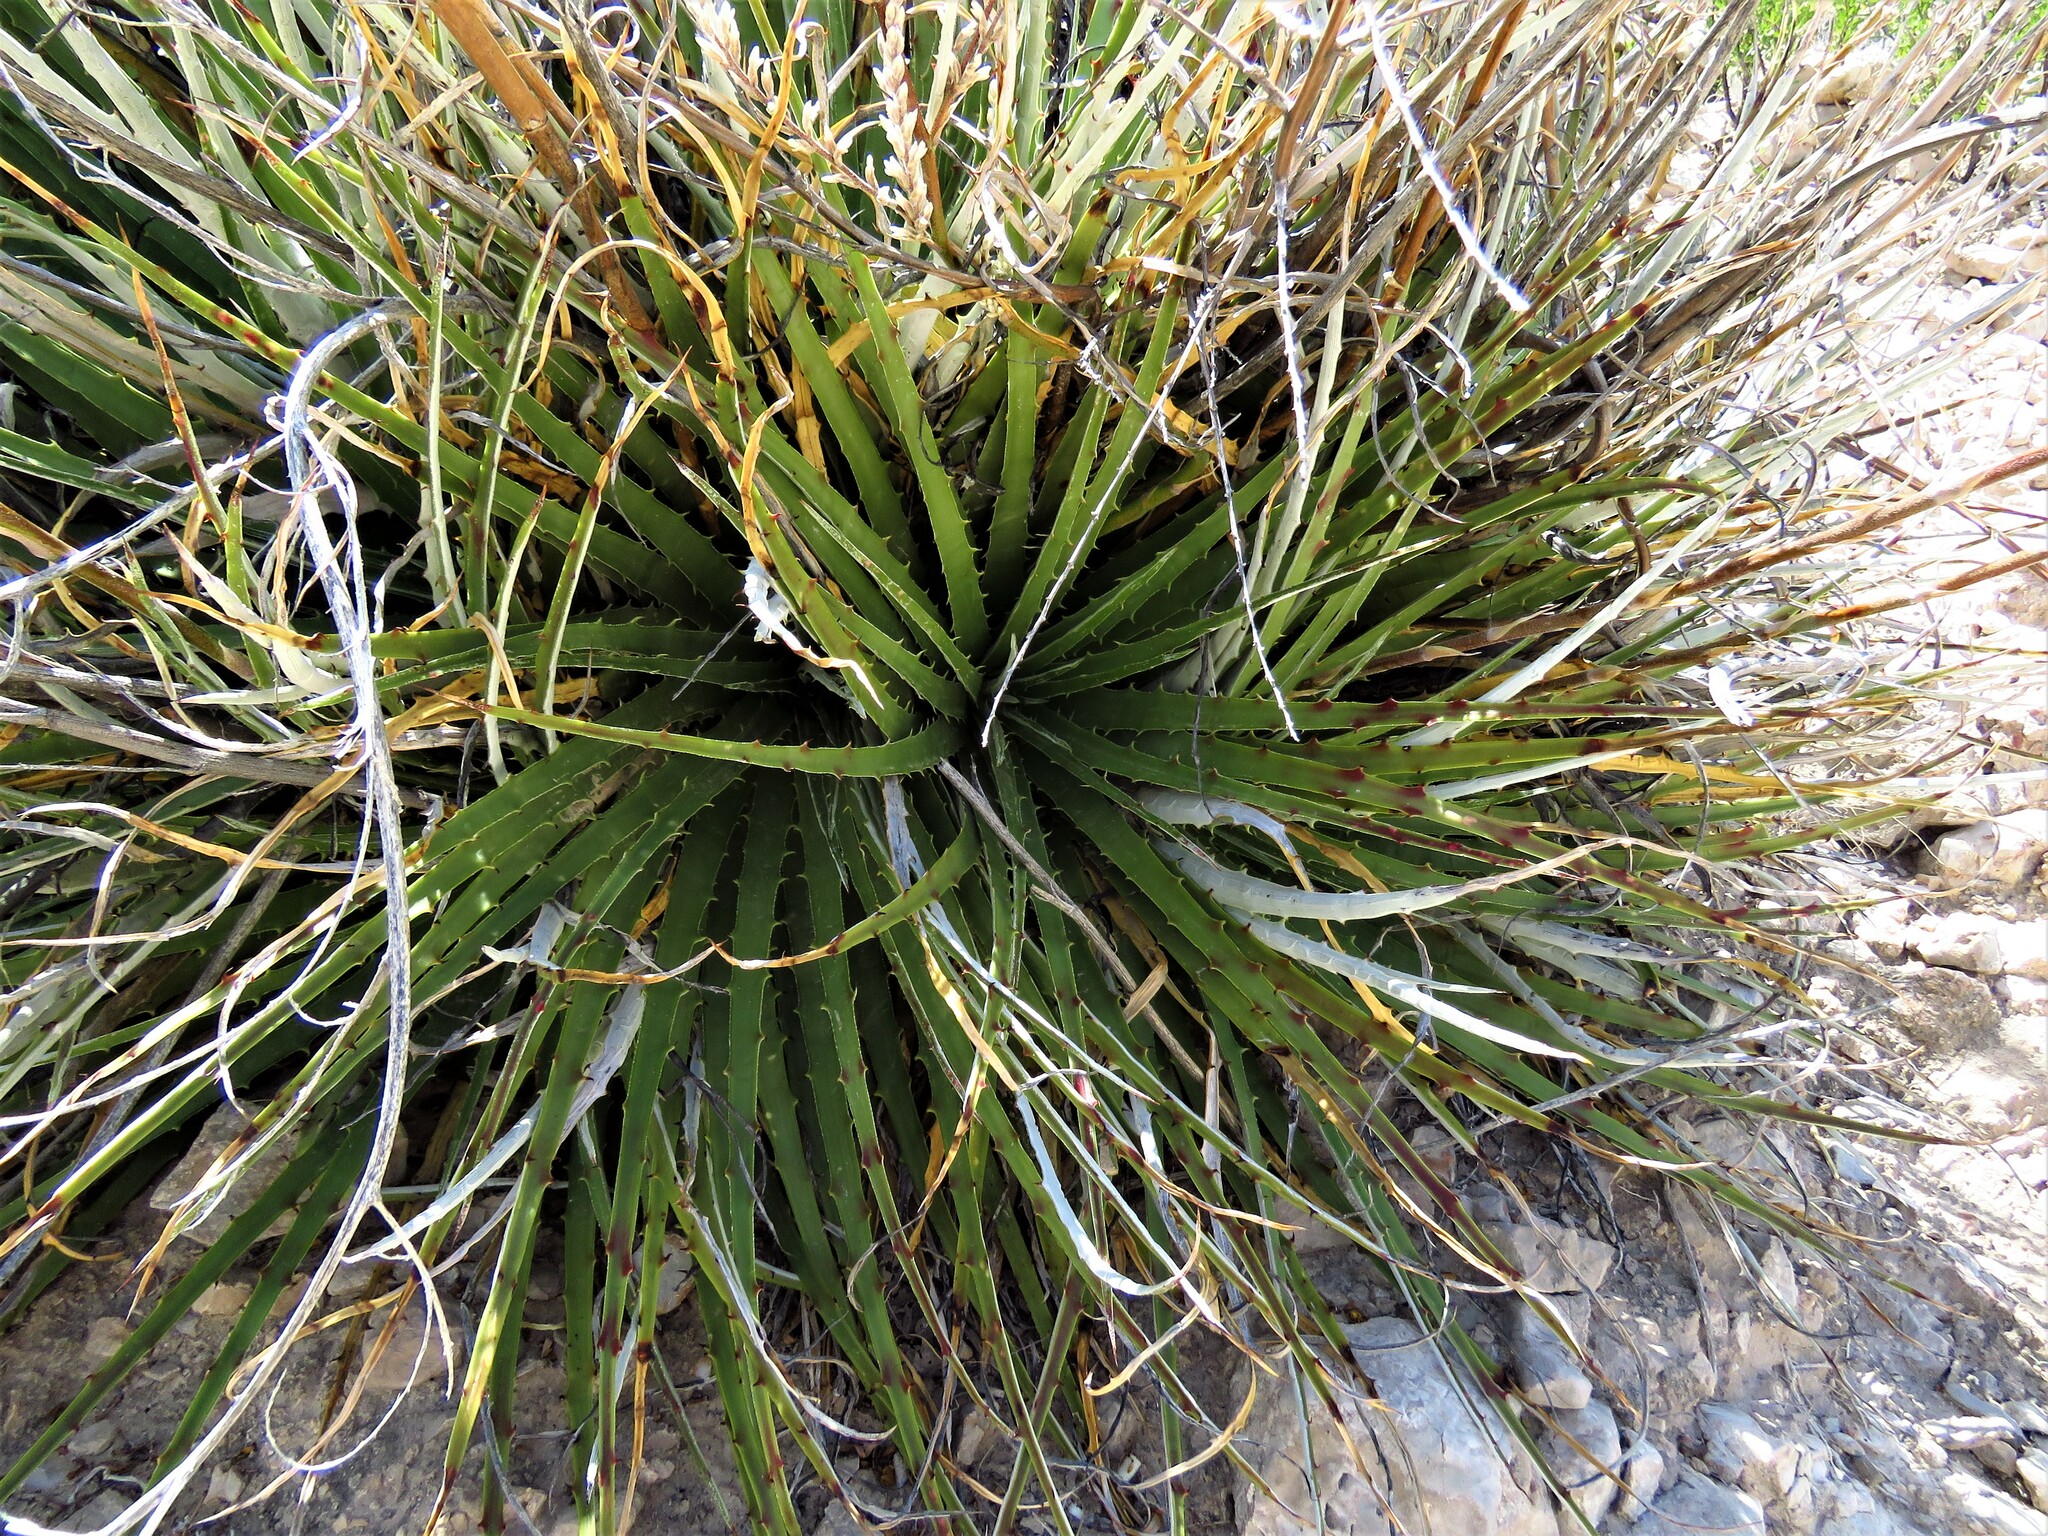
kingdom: Plantae
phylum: Tracheophyta
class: Liliopsida
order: Poales
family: Bromeliaceae
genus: Hechtia
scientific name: Hechtia texensis
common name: False agave
